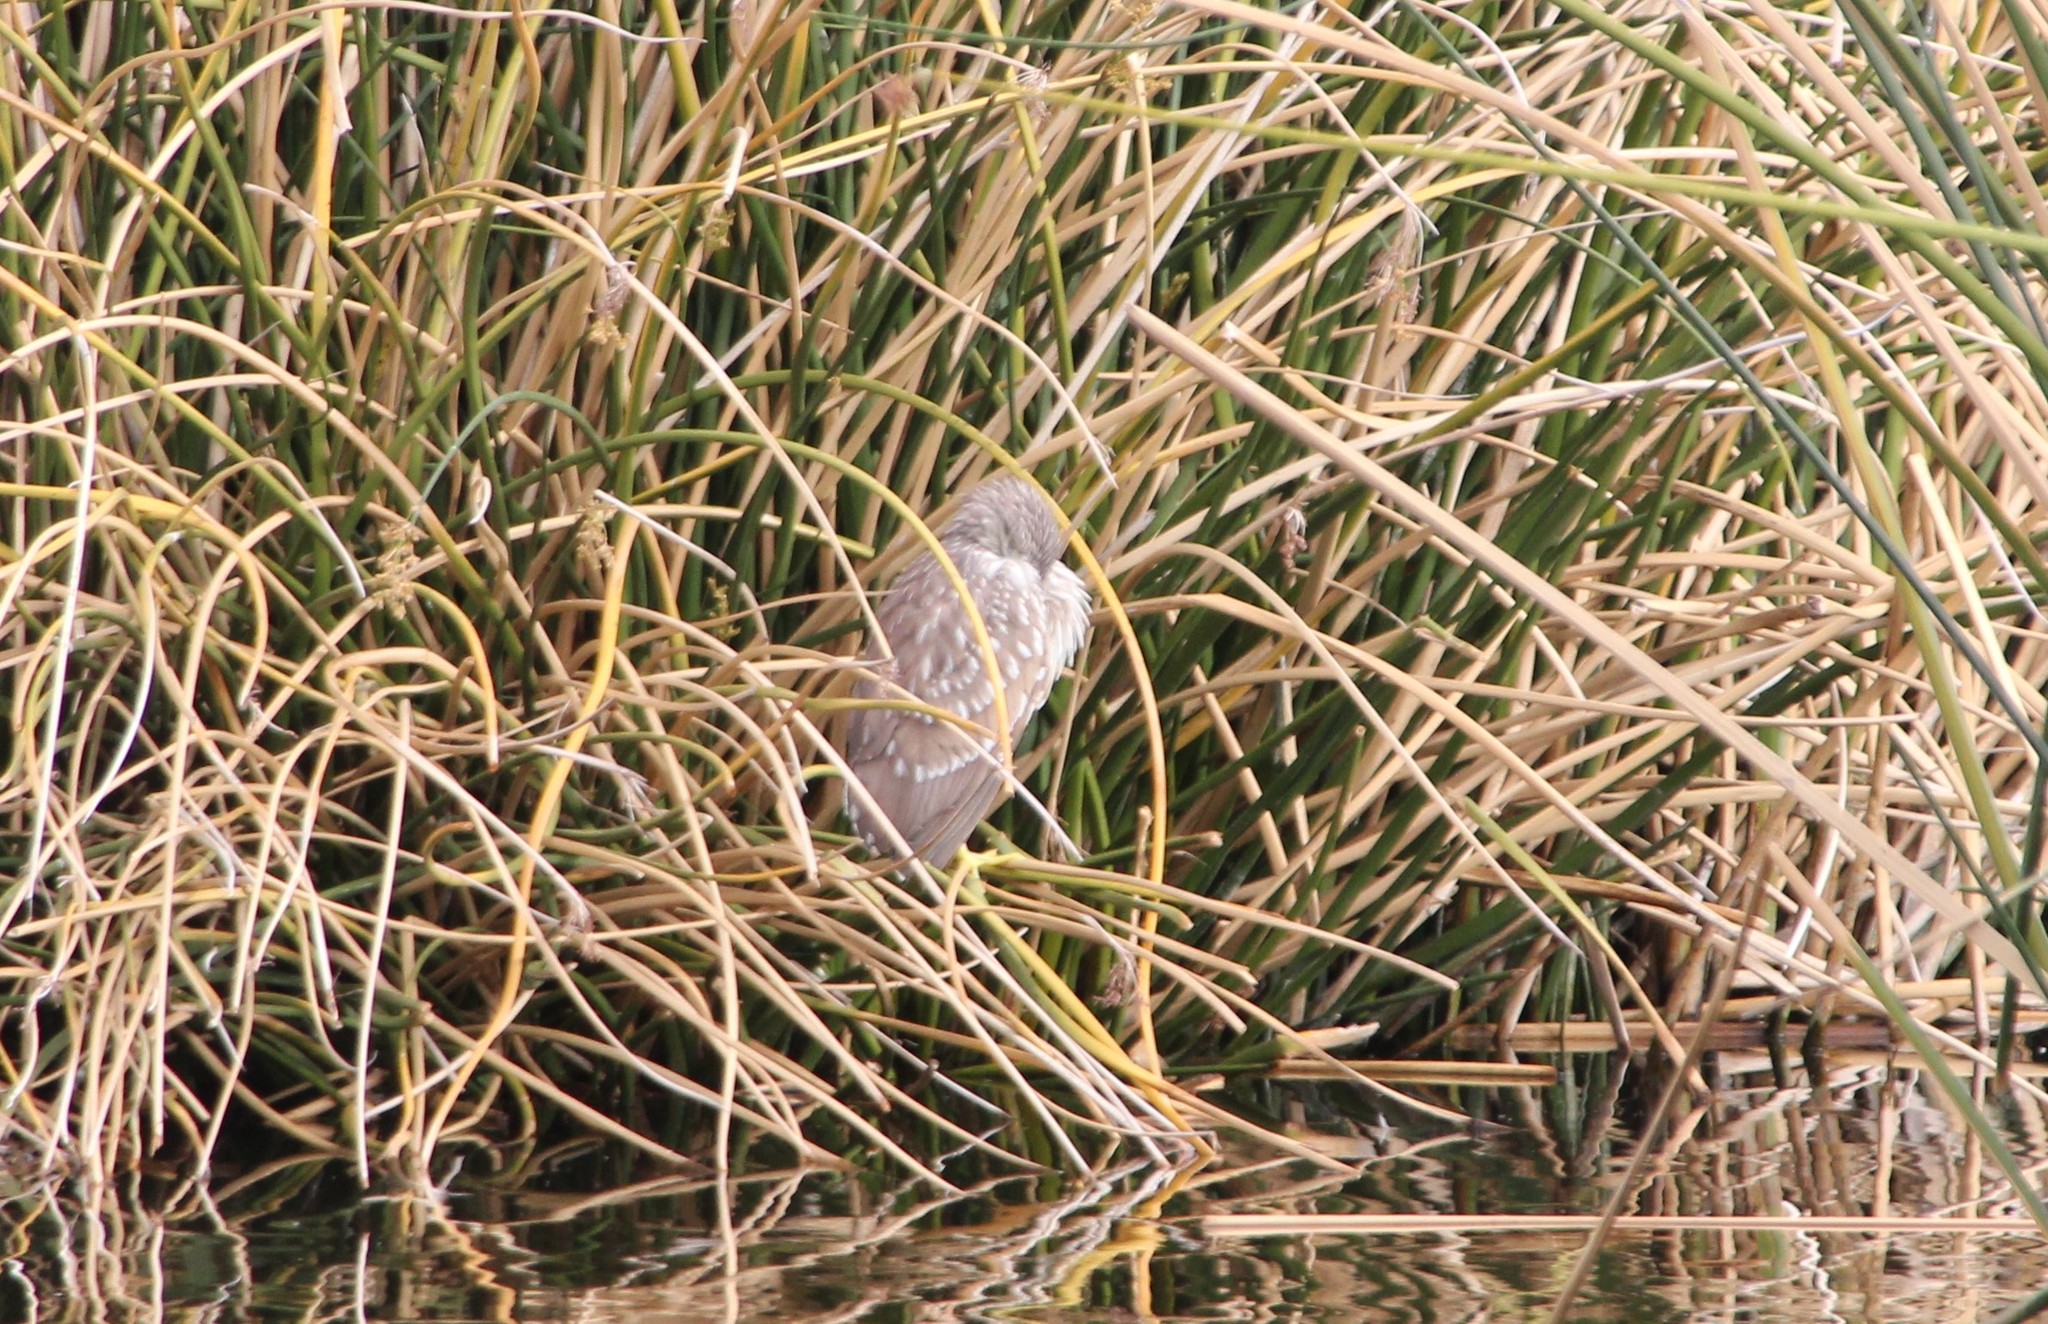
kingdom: Animalia
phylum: Chordata
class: Aves
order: Pelecaniformes
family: Ardeidae
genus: Nycticorax
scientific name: Nycticorax nycticorax
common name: Black-crowned night heron
